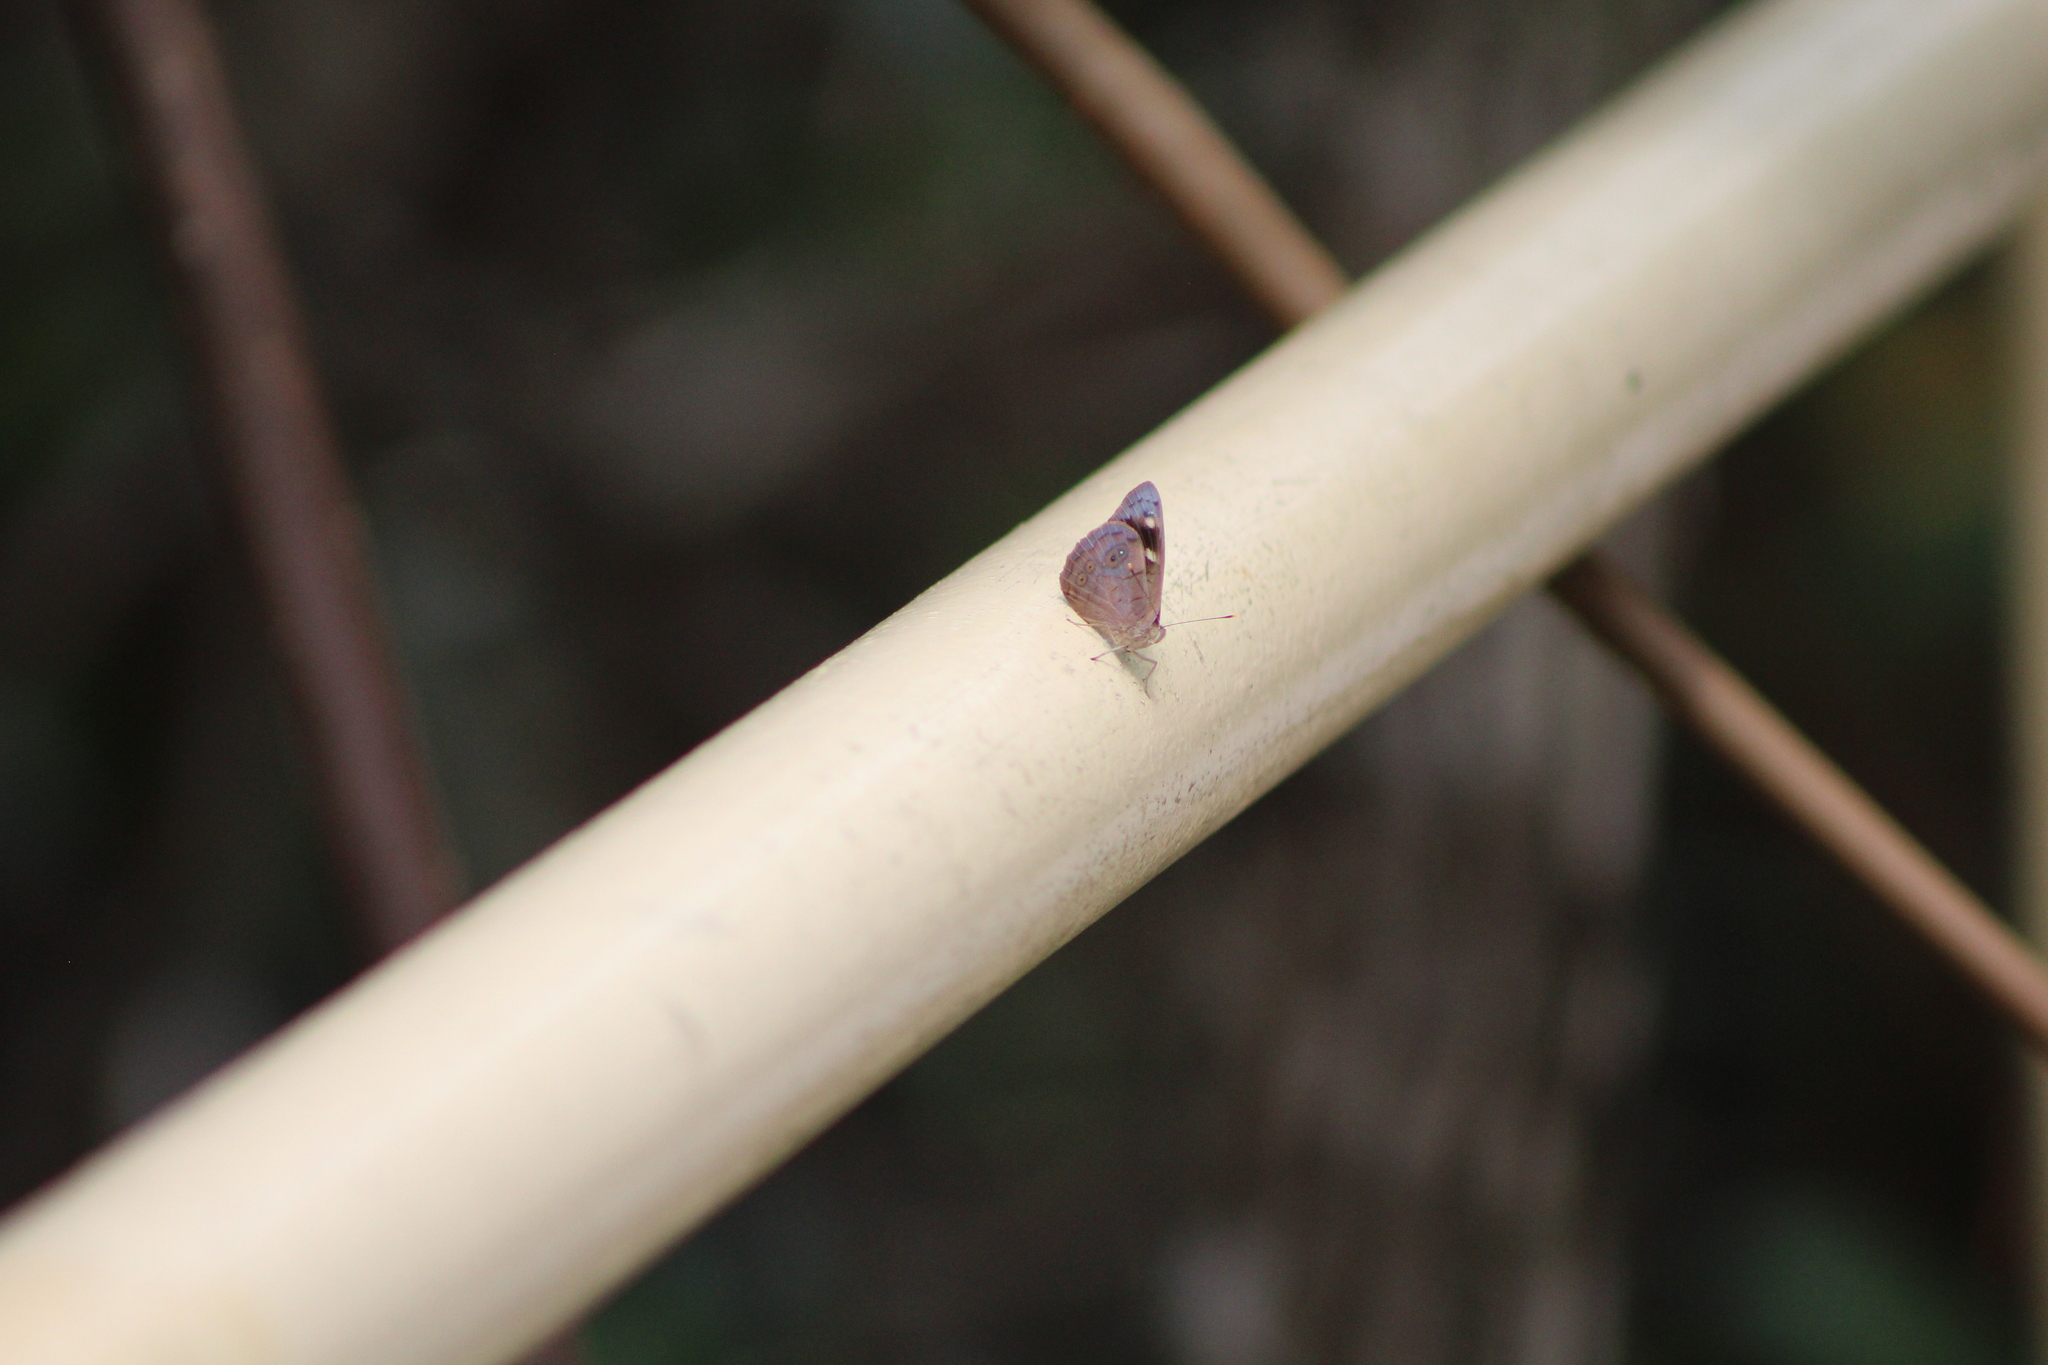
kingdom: Animalia
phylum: Arthropoda
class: Insecta
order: Lepidoptera
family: Nymphalidae
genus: Eunica
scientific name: Eunica monima
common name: Dingy purplewing
